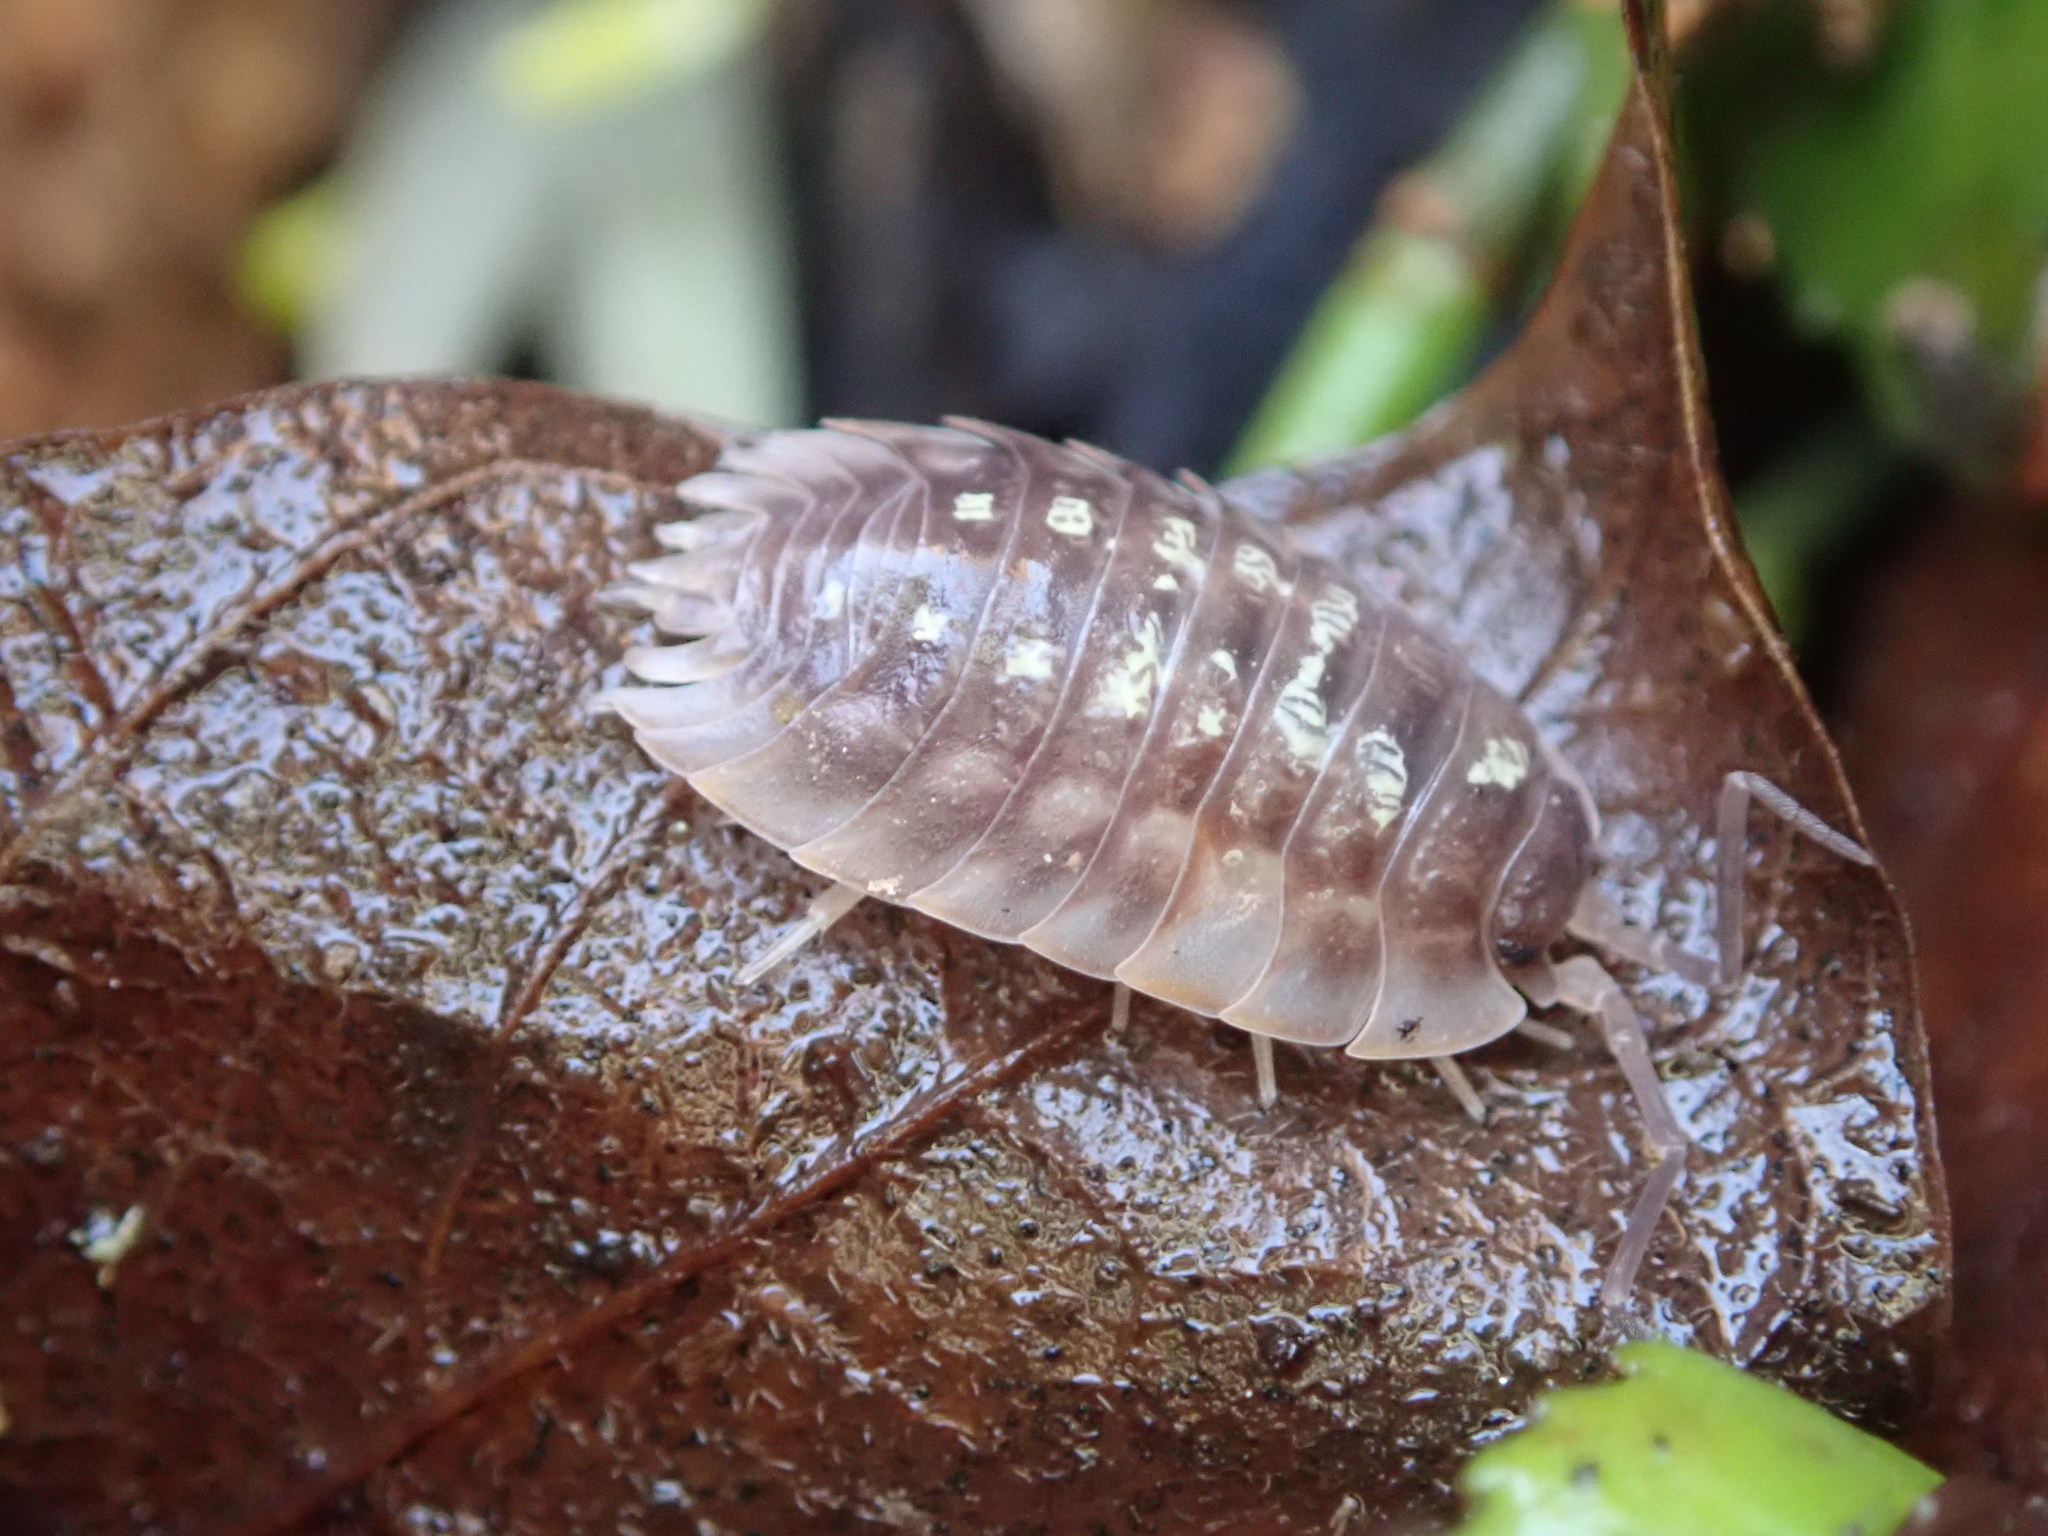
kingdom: Animalia
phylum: Arthropoda
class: Malacostraca
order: Isopoda
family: Oniscidae
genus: Oniscus
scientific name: Oniscus asellus
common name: Common shiny woodlouse
